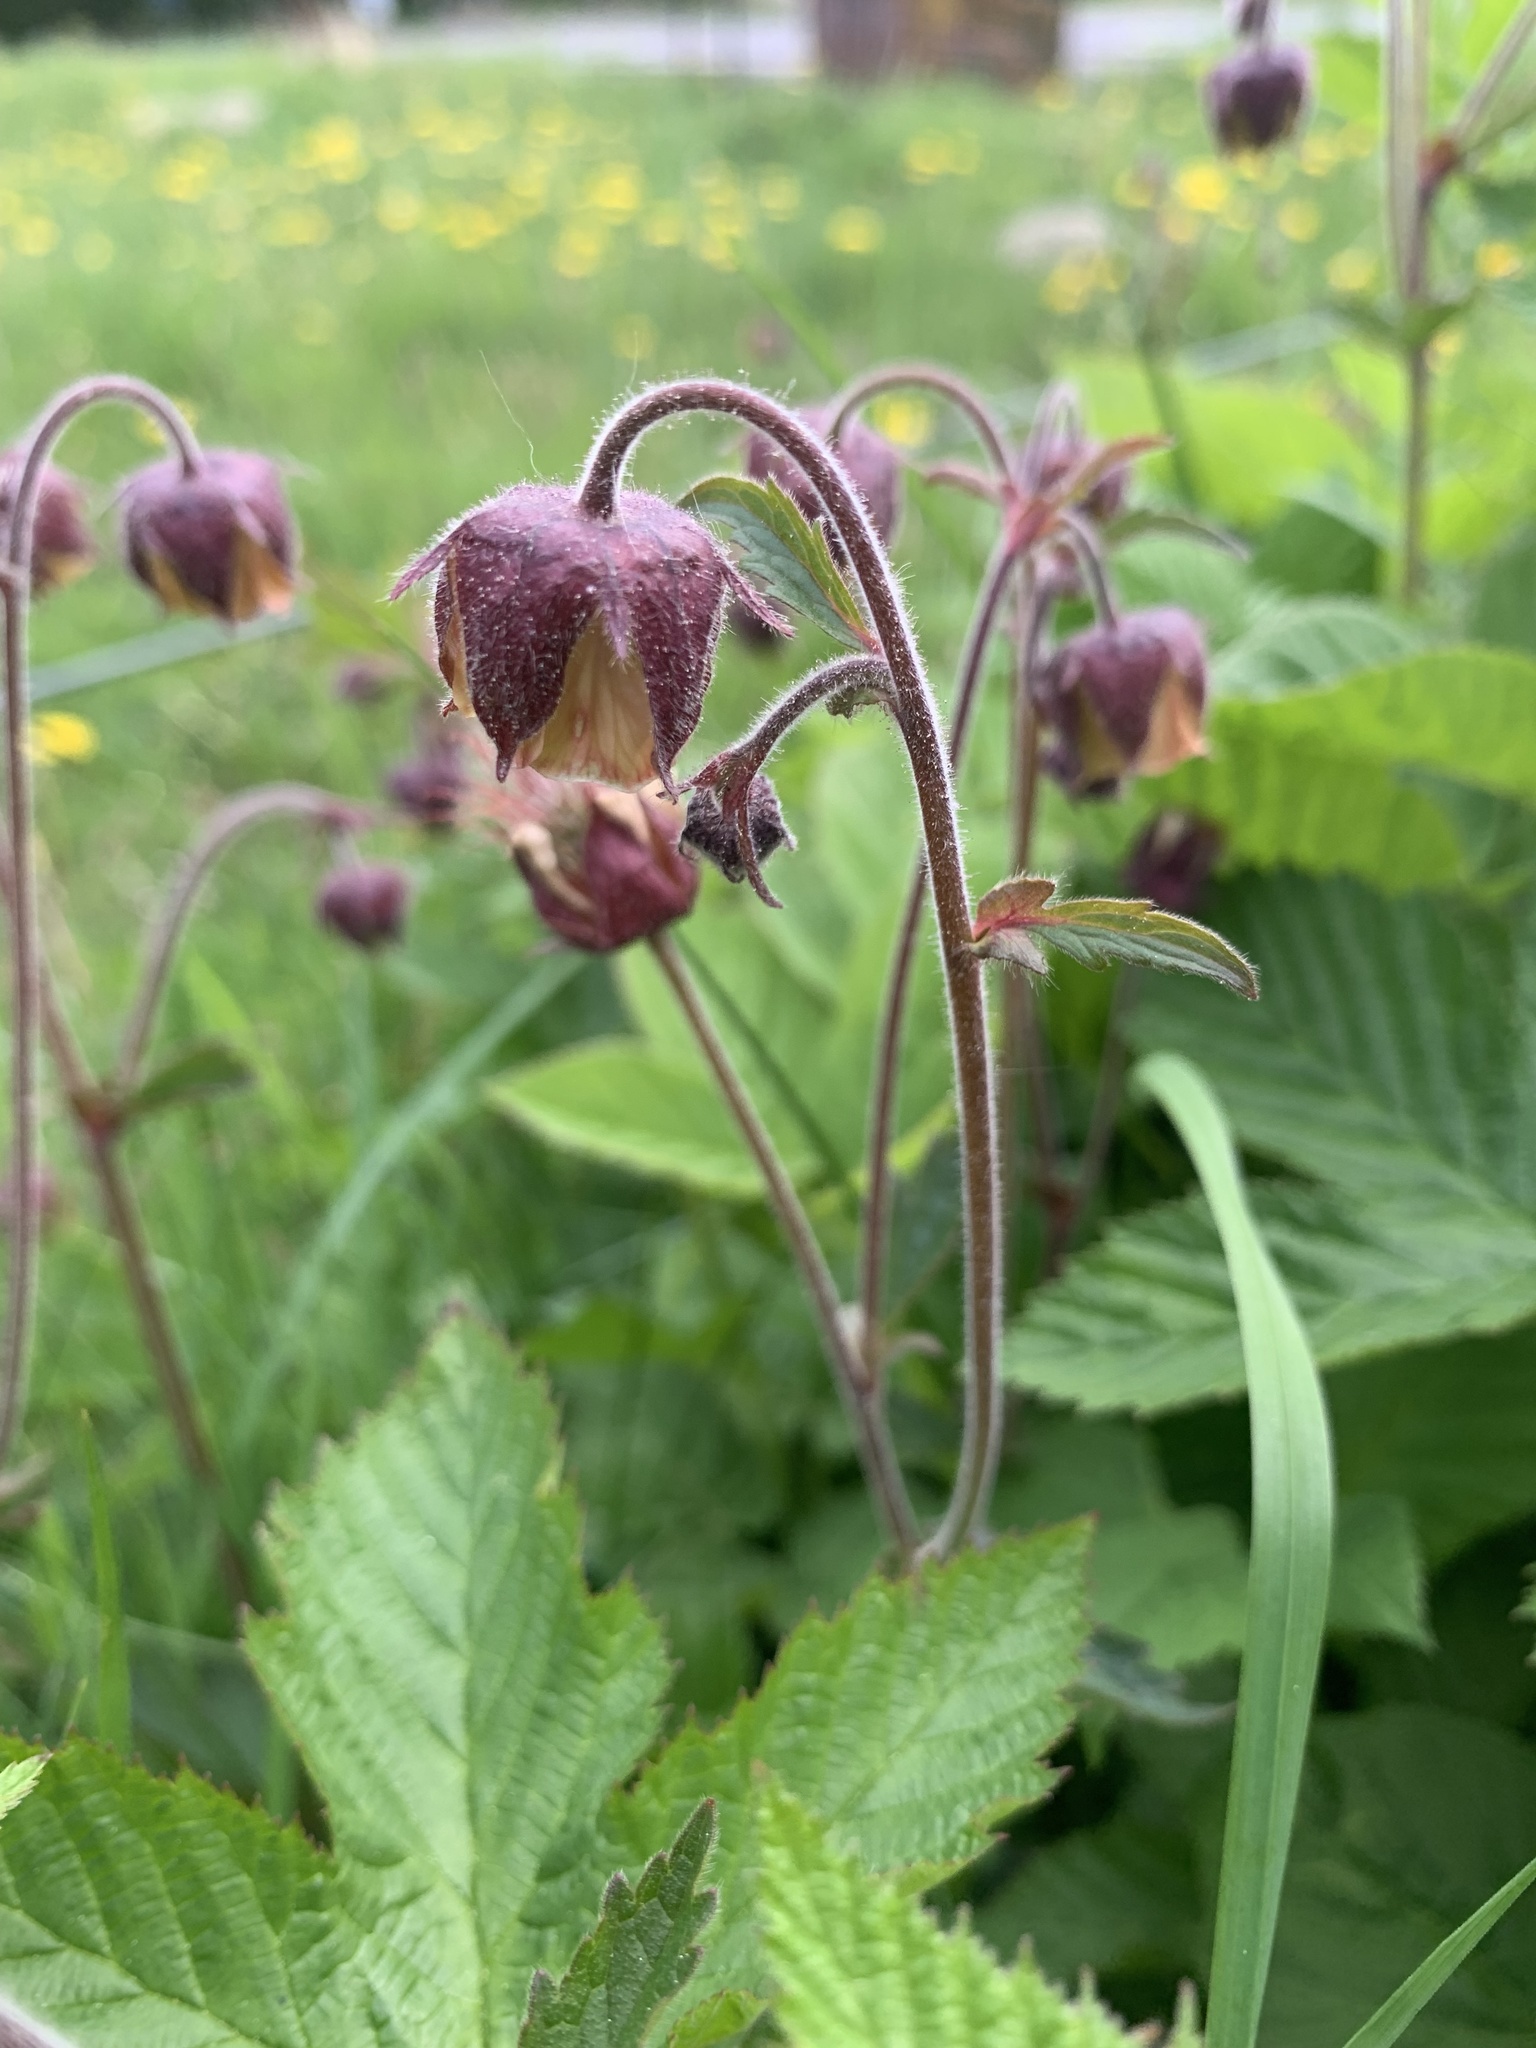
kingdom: Plantae
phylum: Tracheophyta
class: Magnoliopsida
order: Rosales
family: Rosaceae
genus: Geum
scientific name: Geum rivale
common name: Water avens
